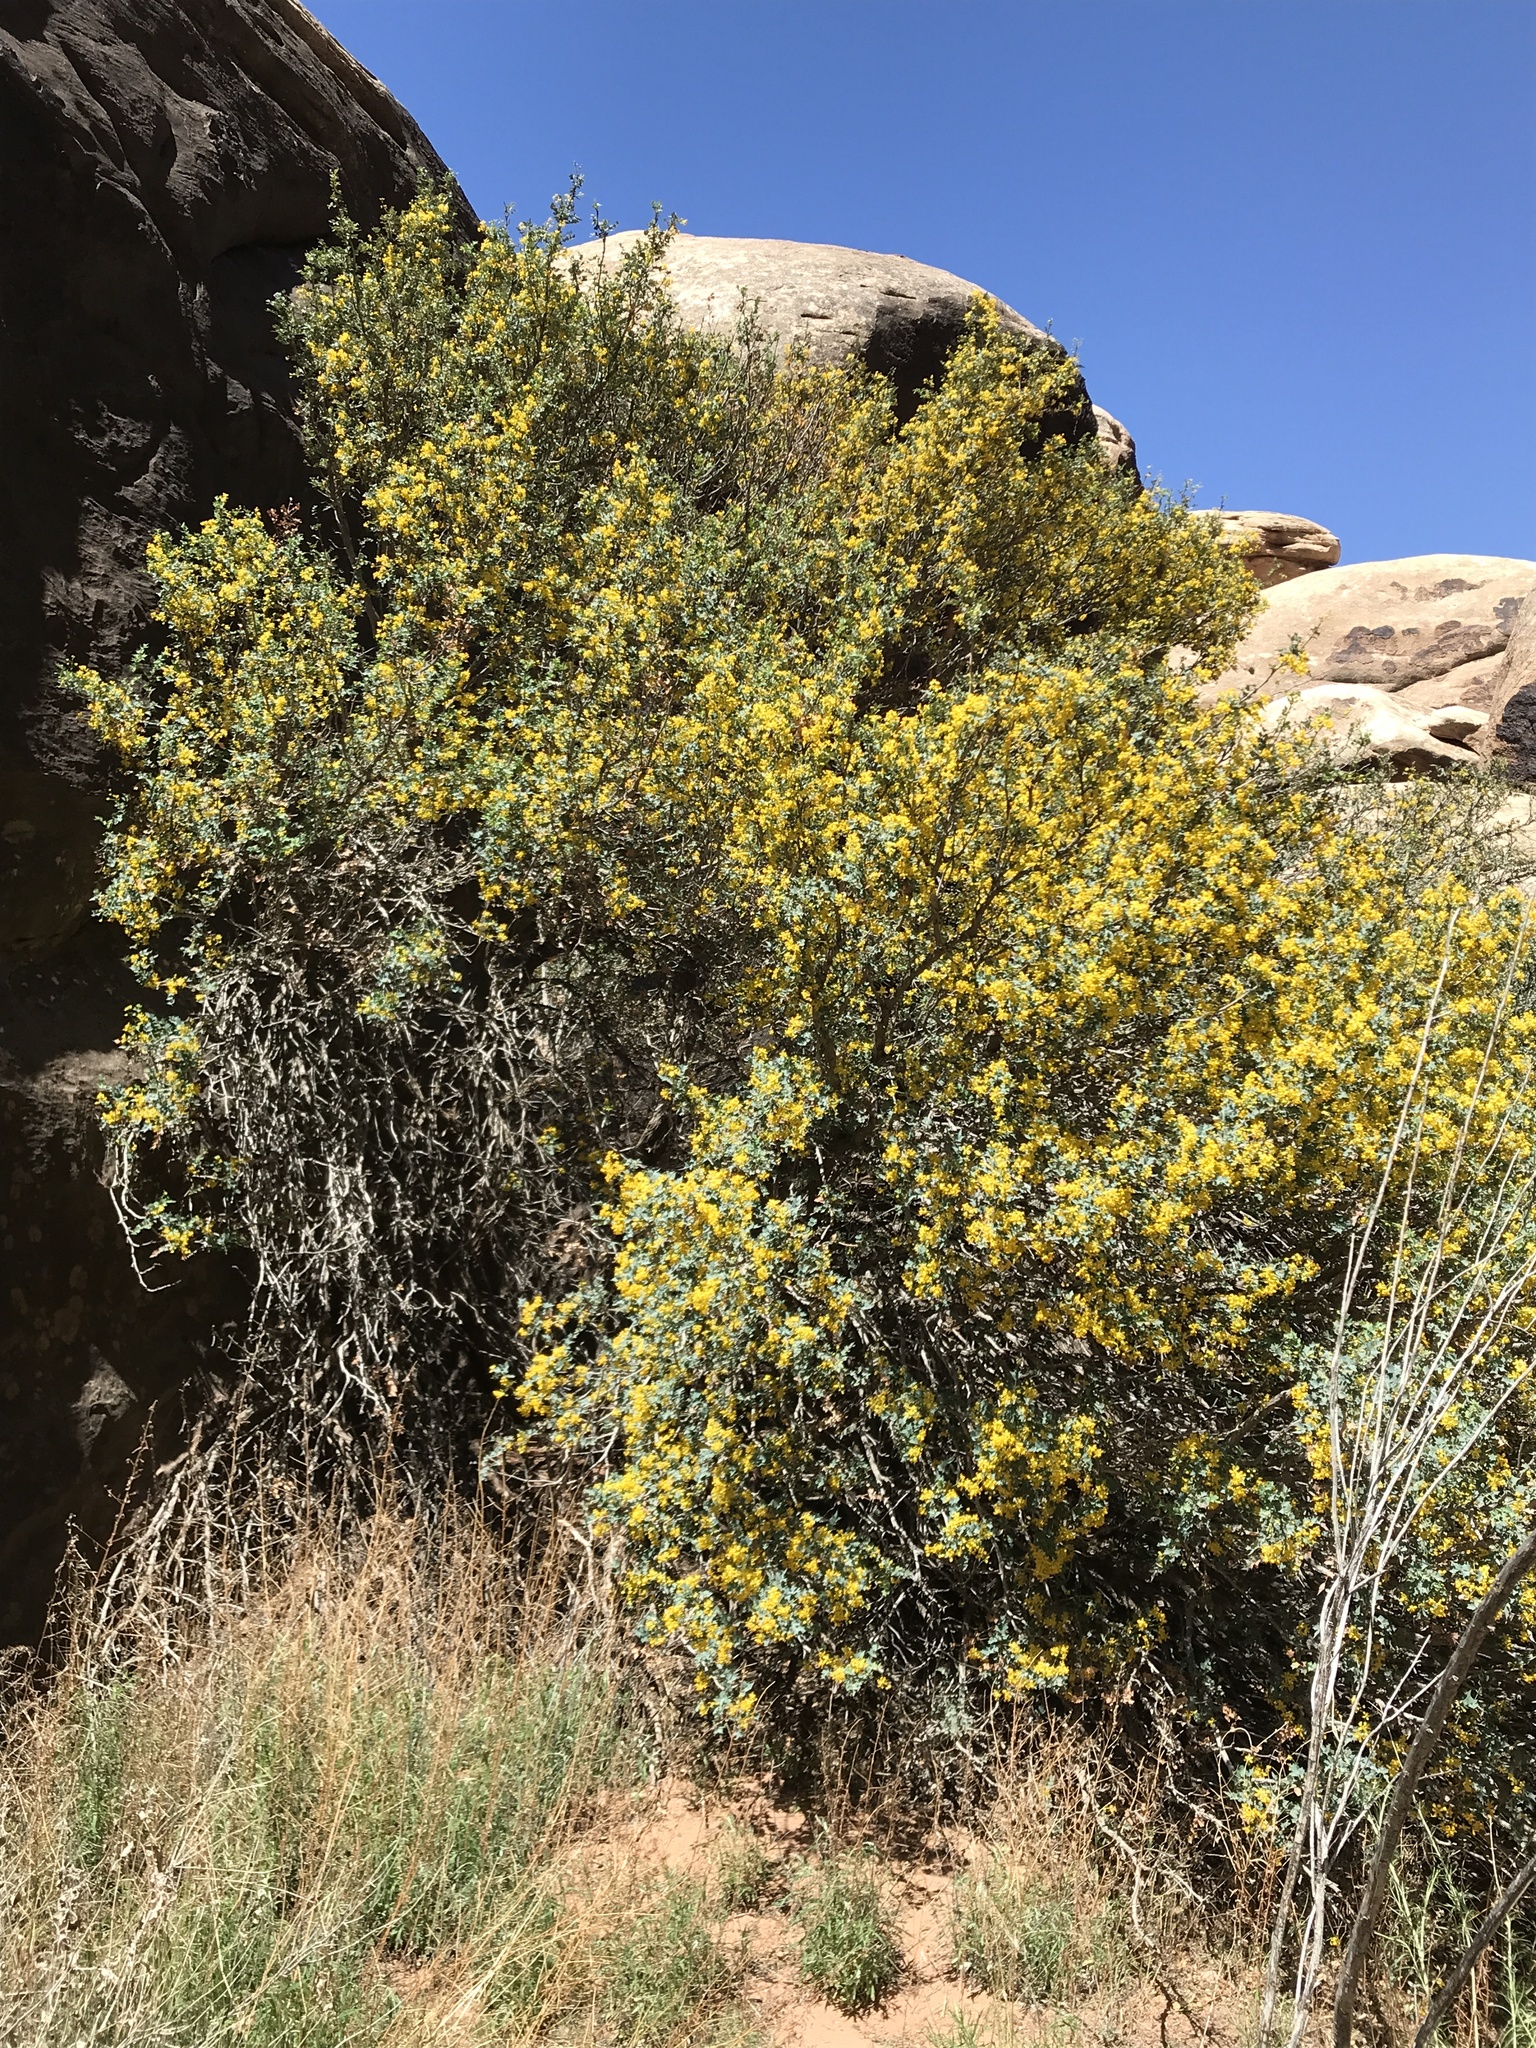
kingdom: Plantae
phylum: Tracheophyta
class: Magnoliopsida
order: Ranunculales
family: Berberidaceae
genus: Alloberberis
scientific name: Alloberberis fremontii
